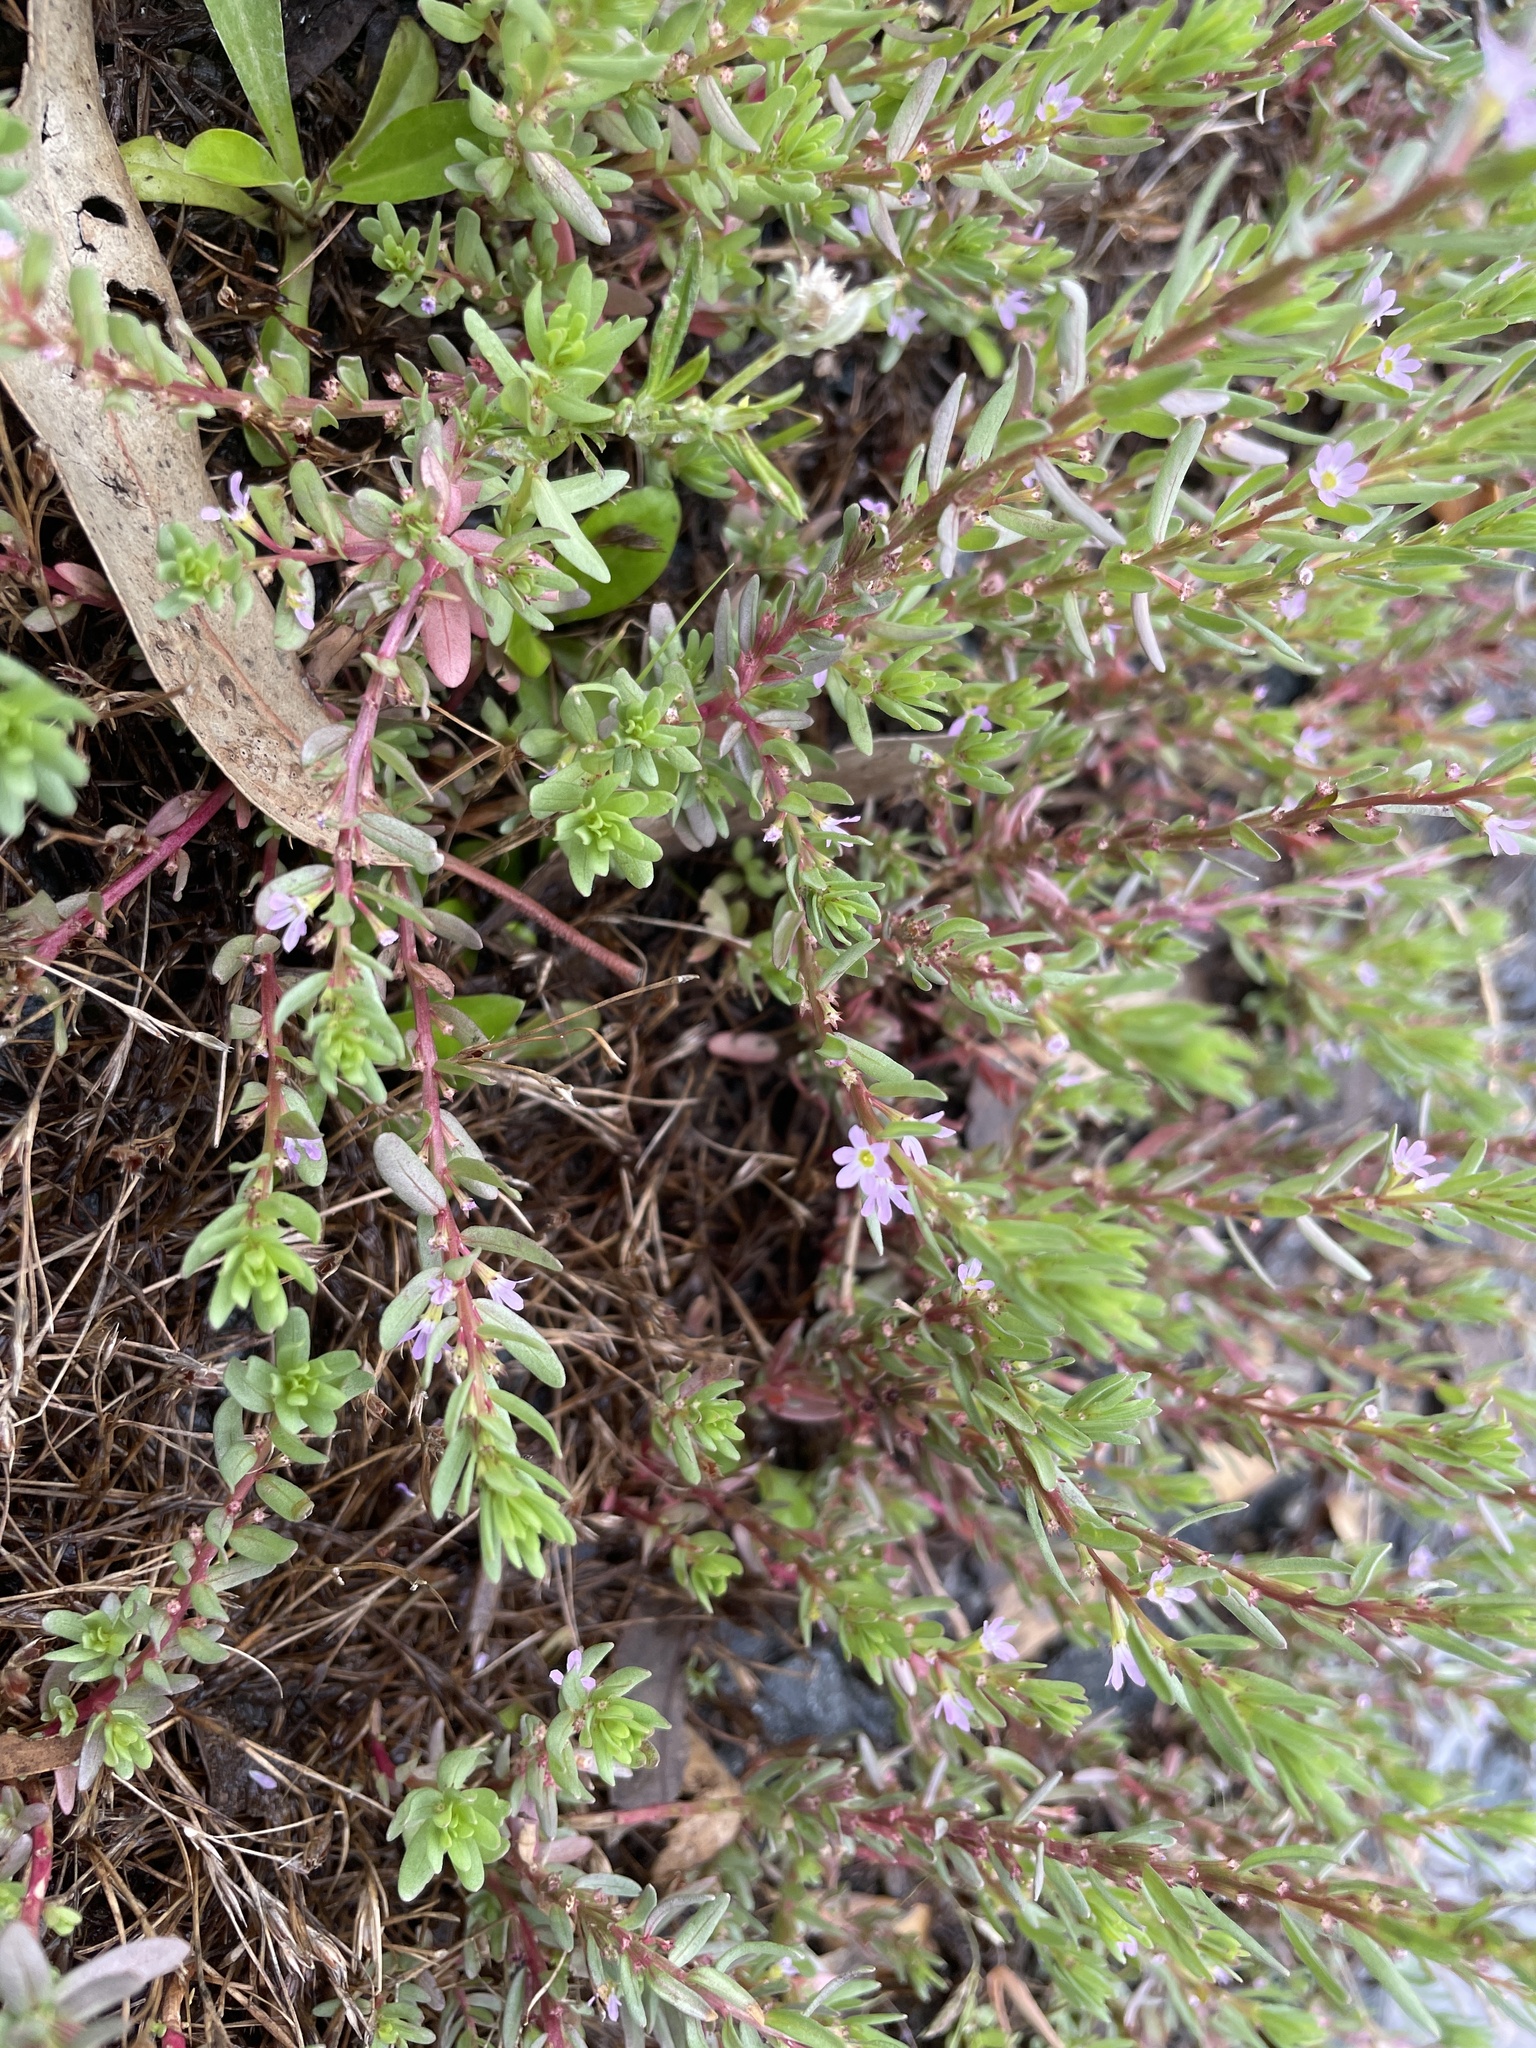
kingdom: Plantae
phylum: Tracheophyta
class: Magnoliopsida
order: Myrtales
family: Lythraceae
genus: Lythrum
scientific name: Lythrum hyssopifolia
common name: Grass-poly
